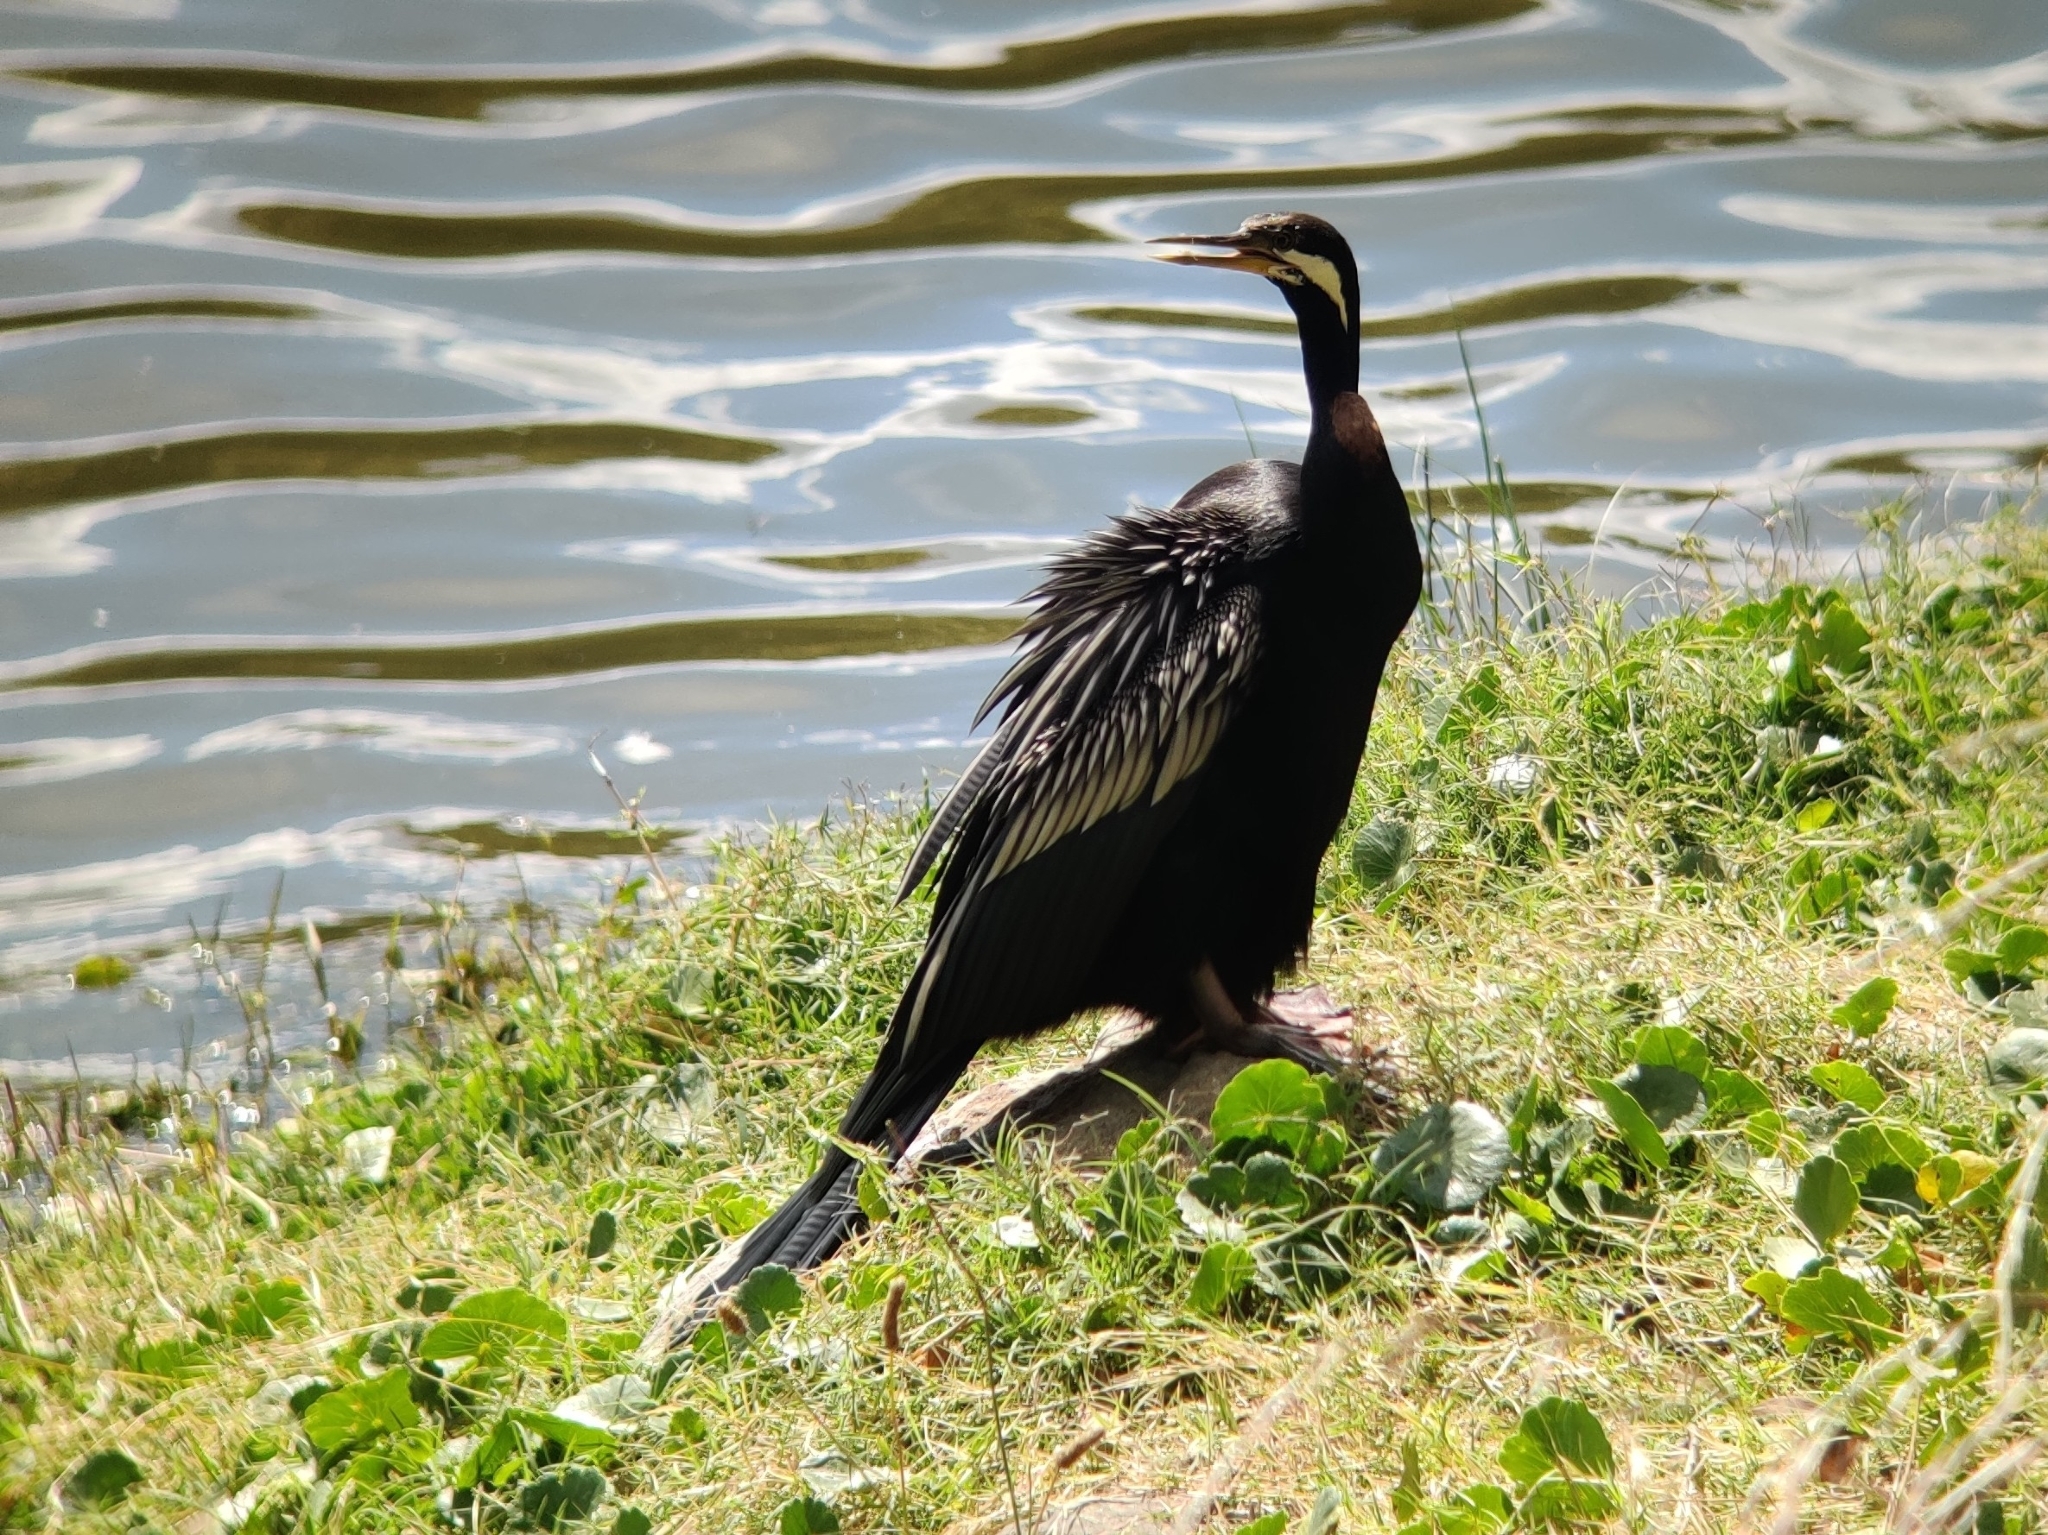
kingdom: Animalia
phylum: Chordata
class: Aves
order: Suliformes
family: Anhingidae
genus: Anhinga
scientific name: Anhinga novaehollandiae
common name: Australasian darter
